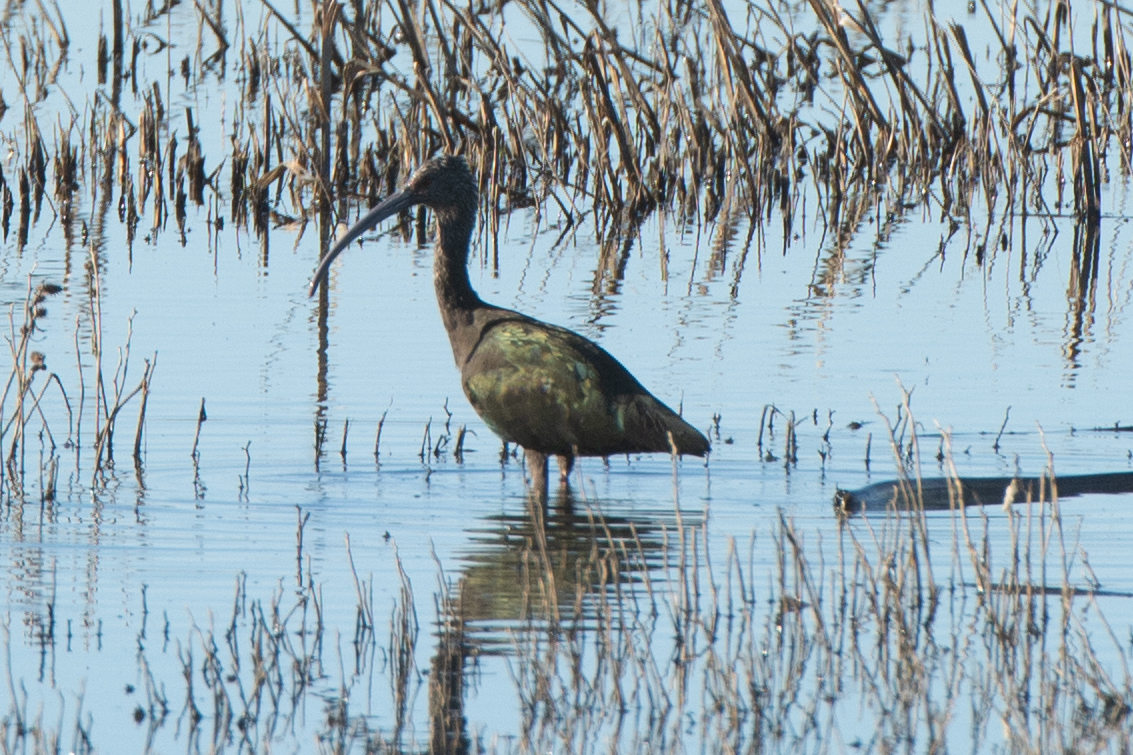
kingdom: Animalia
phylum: Chordata
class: Aves
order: Pelecaniformes
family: Threskiornithidae
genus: Plegadis
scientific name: Plegadis chihi
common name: White-faced ibis
